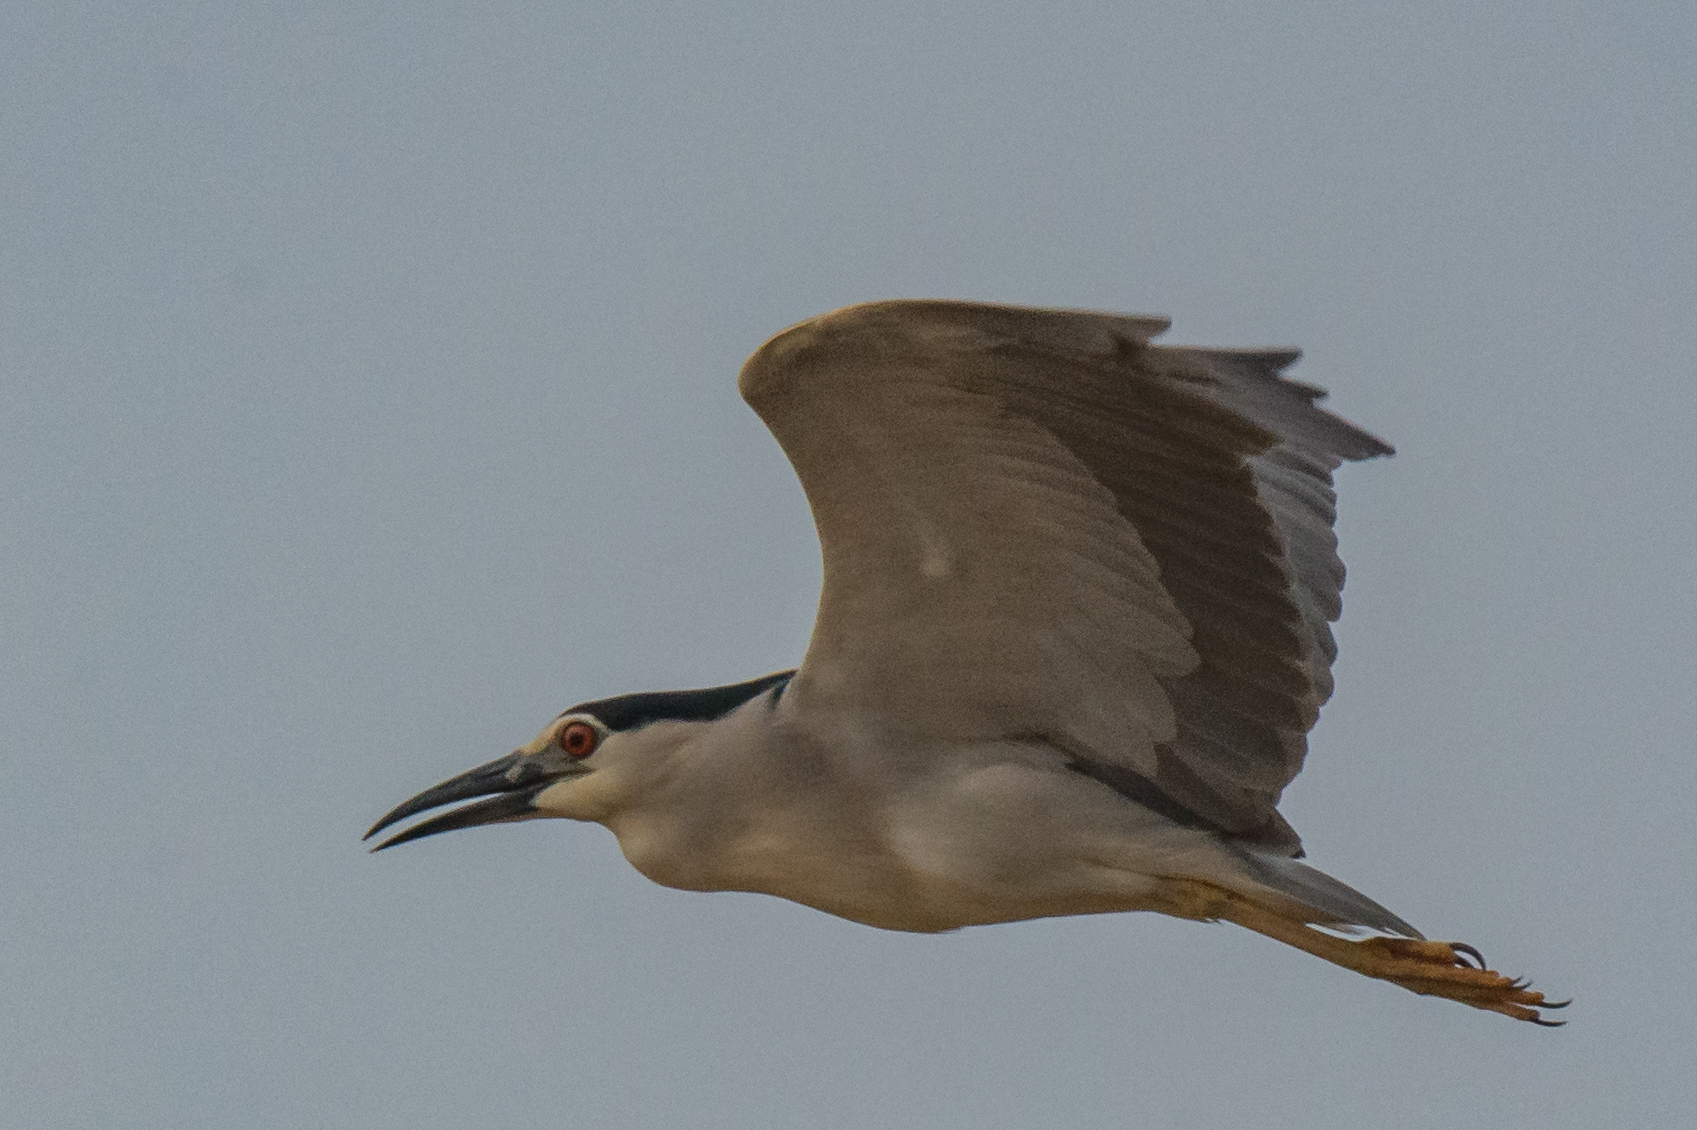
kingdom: Animalia
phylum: Chordata
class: Aves
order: Pelecaniformes
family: Ardeidae
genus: Nycticorax
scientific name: Nycticorax nycticorax
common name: Black-crowned night heron
